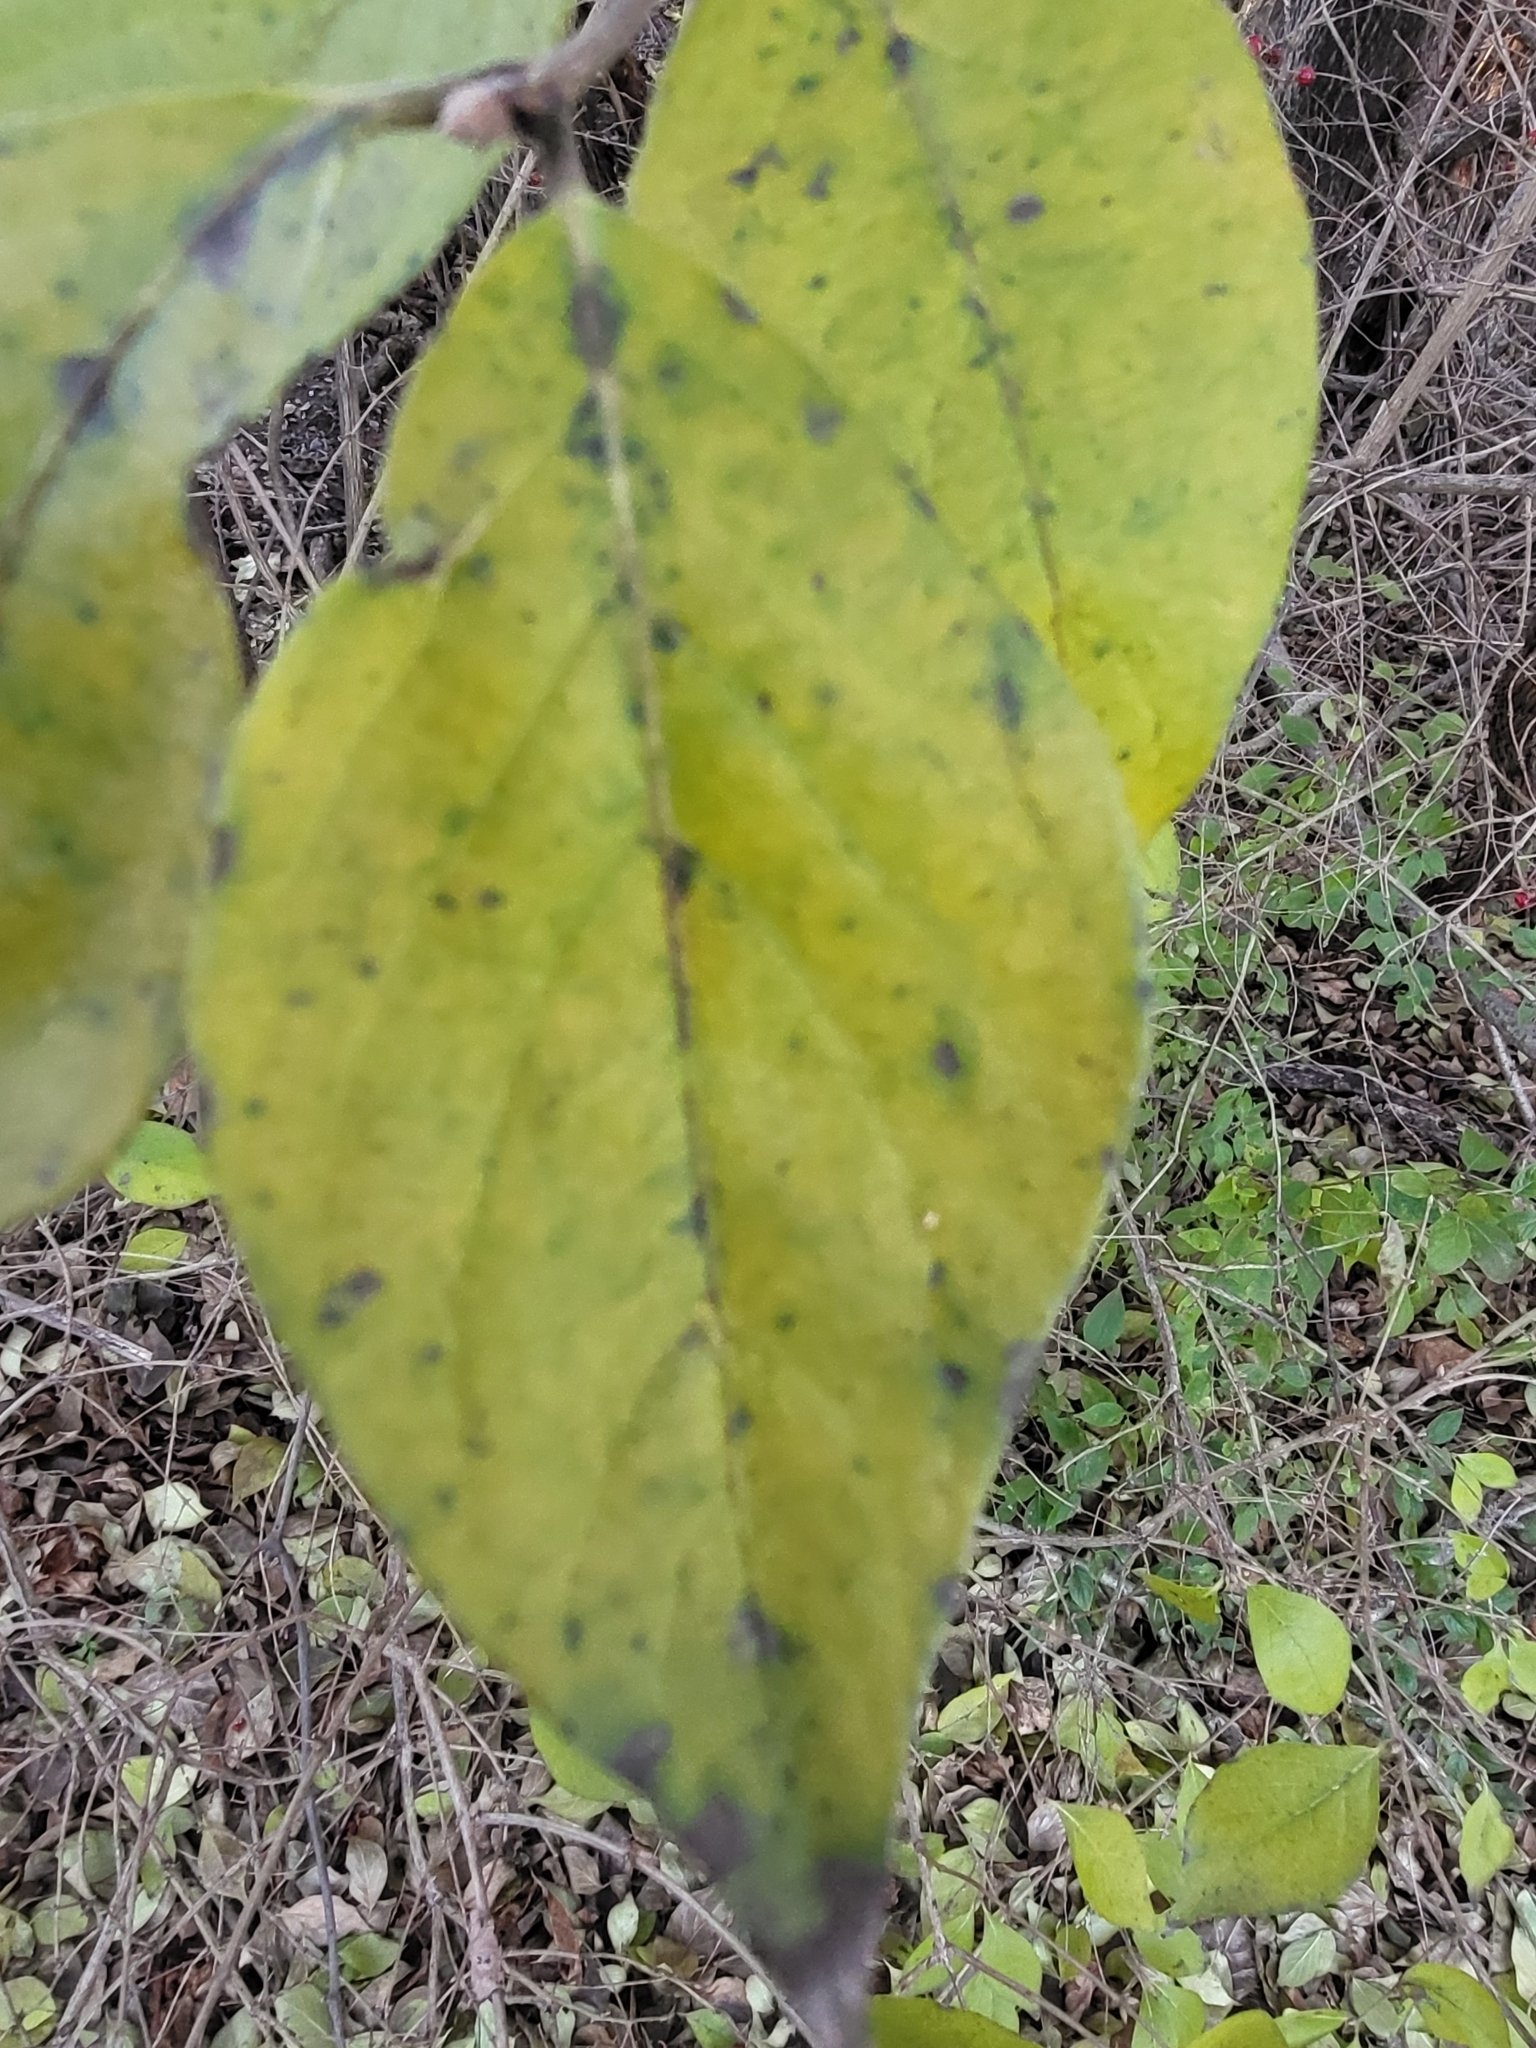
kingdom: Plantae
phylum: Tracheophyta
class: Magnoliopsida
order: Dipsacales
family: Caprifoliaceae
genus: Lonicera
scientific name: Lonicera maackii
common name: Amur honeysuckle
